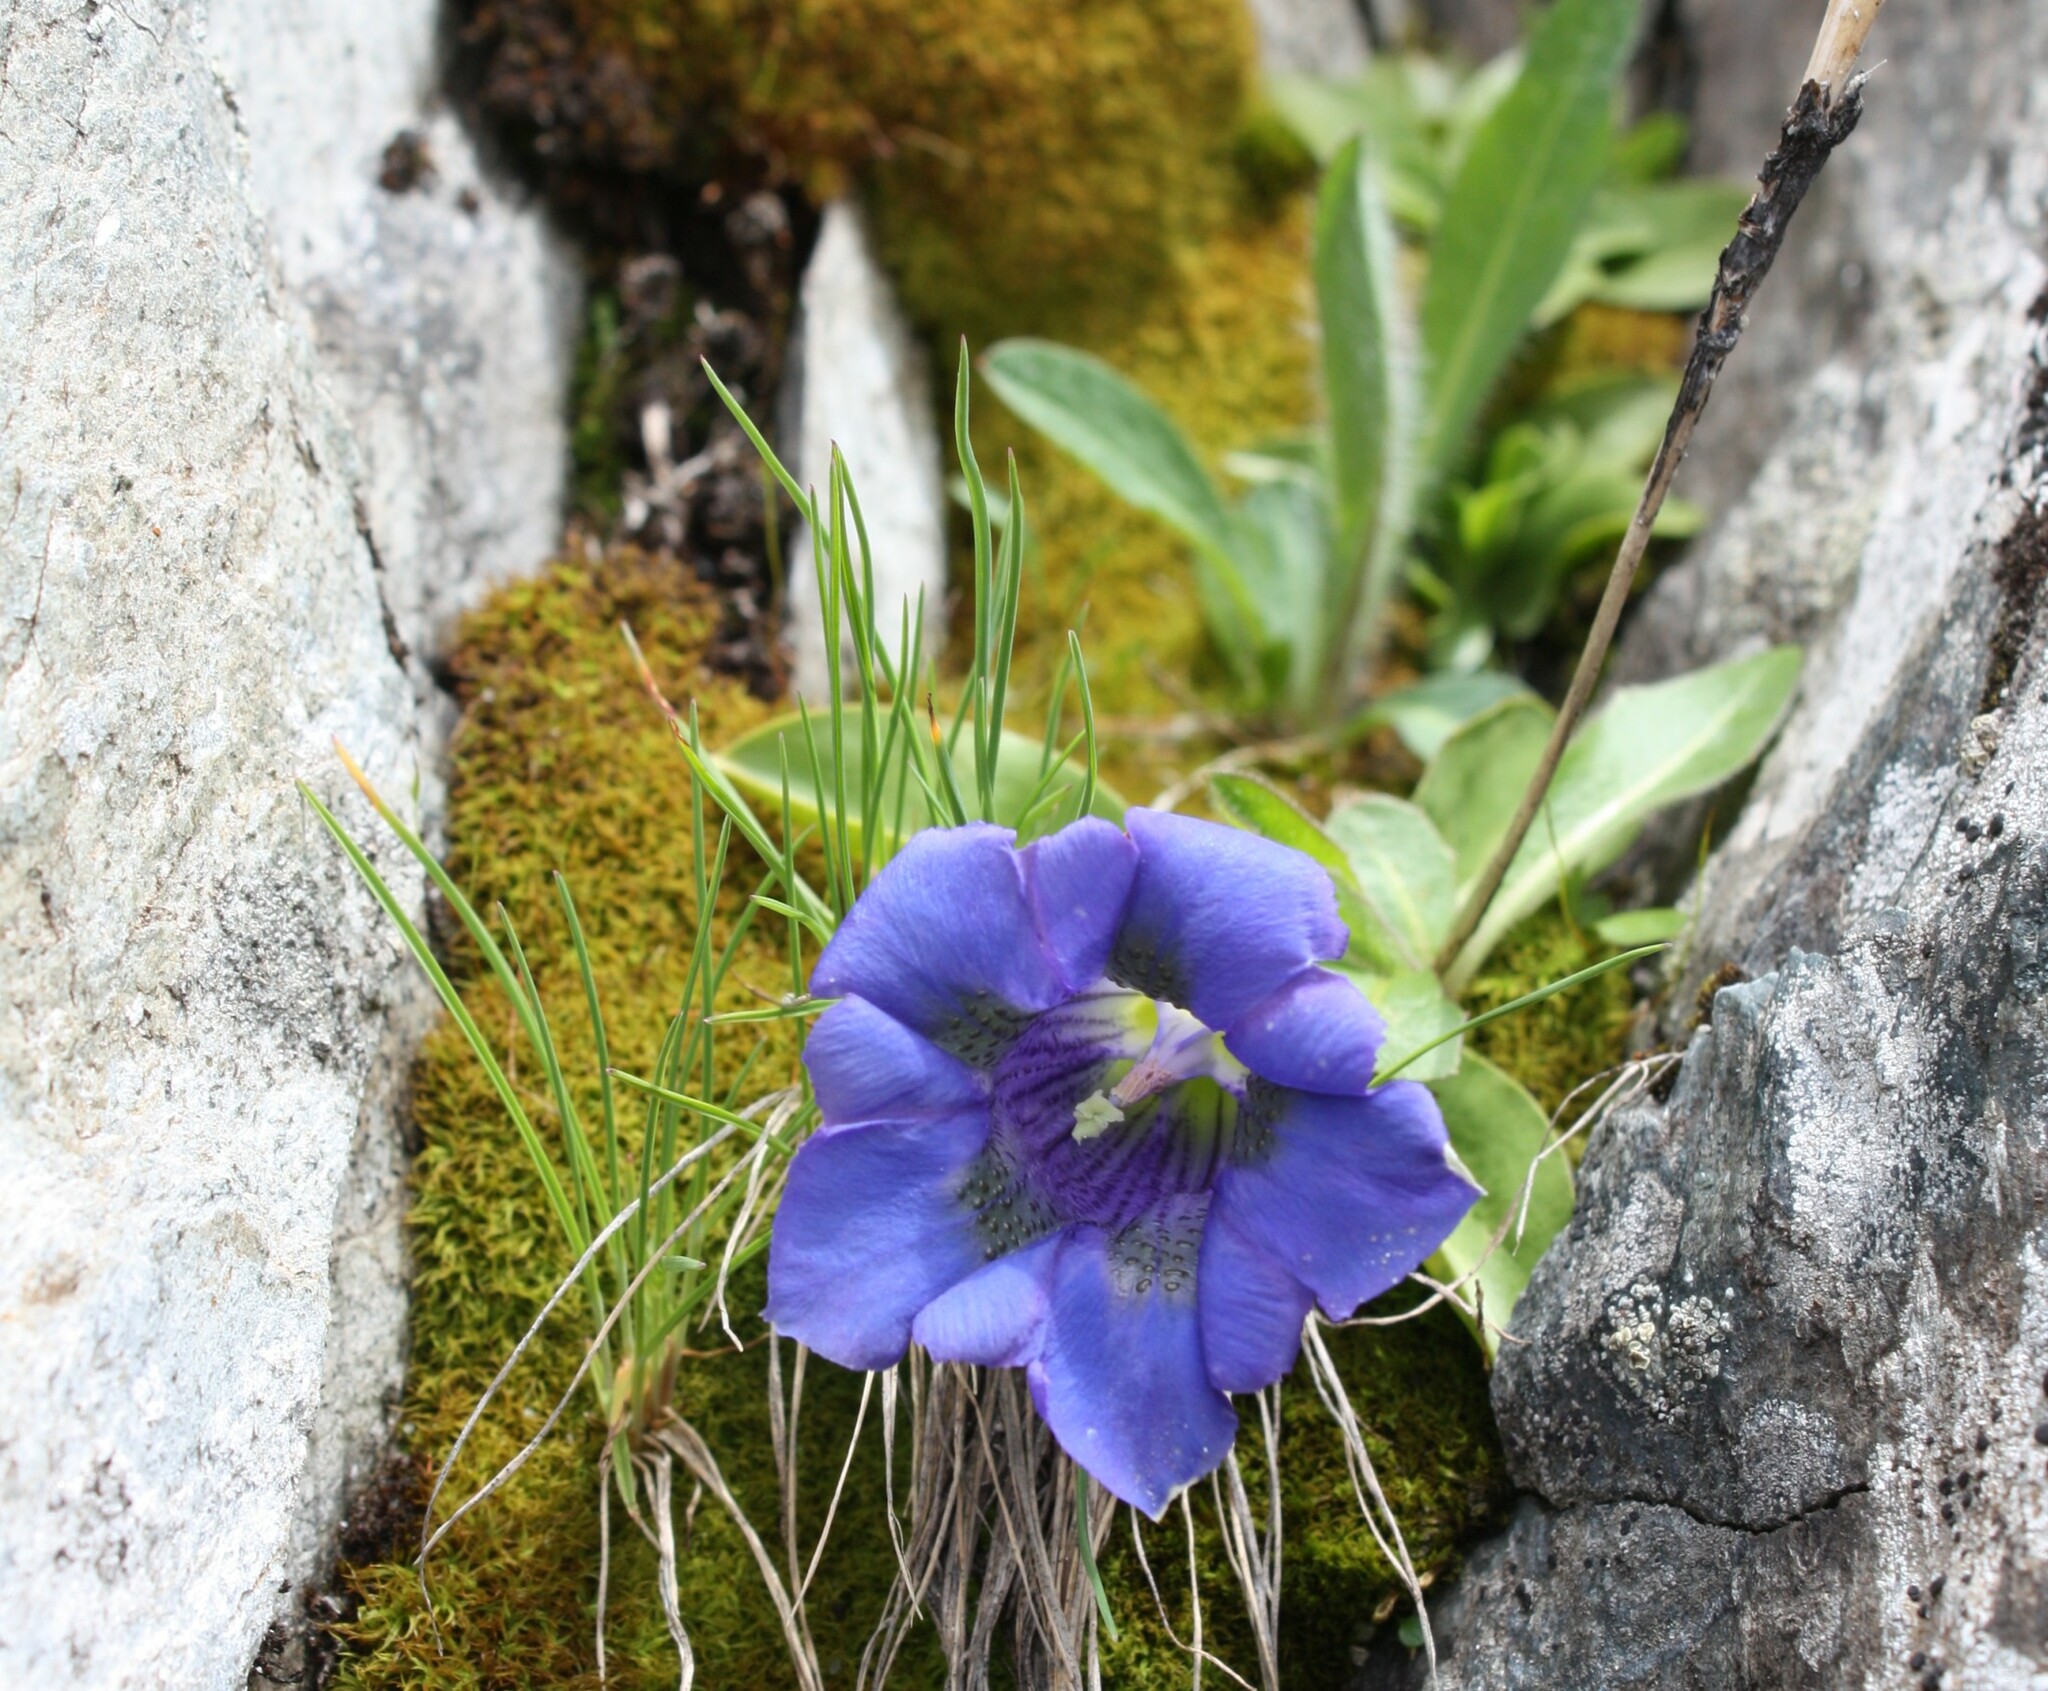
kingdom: Plantae
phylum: Tracheophyta
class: Magnoliopsida
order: Gentianales
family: Gentianaceae
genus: Gentiana
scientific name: Gentiana acaulis
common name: Trumpet gentian
